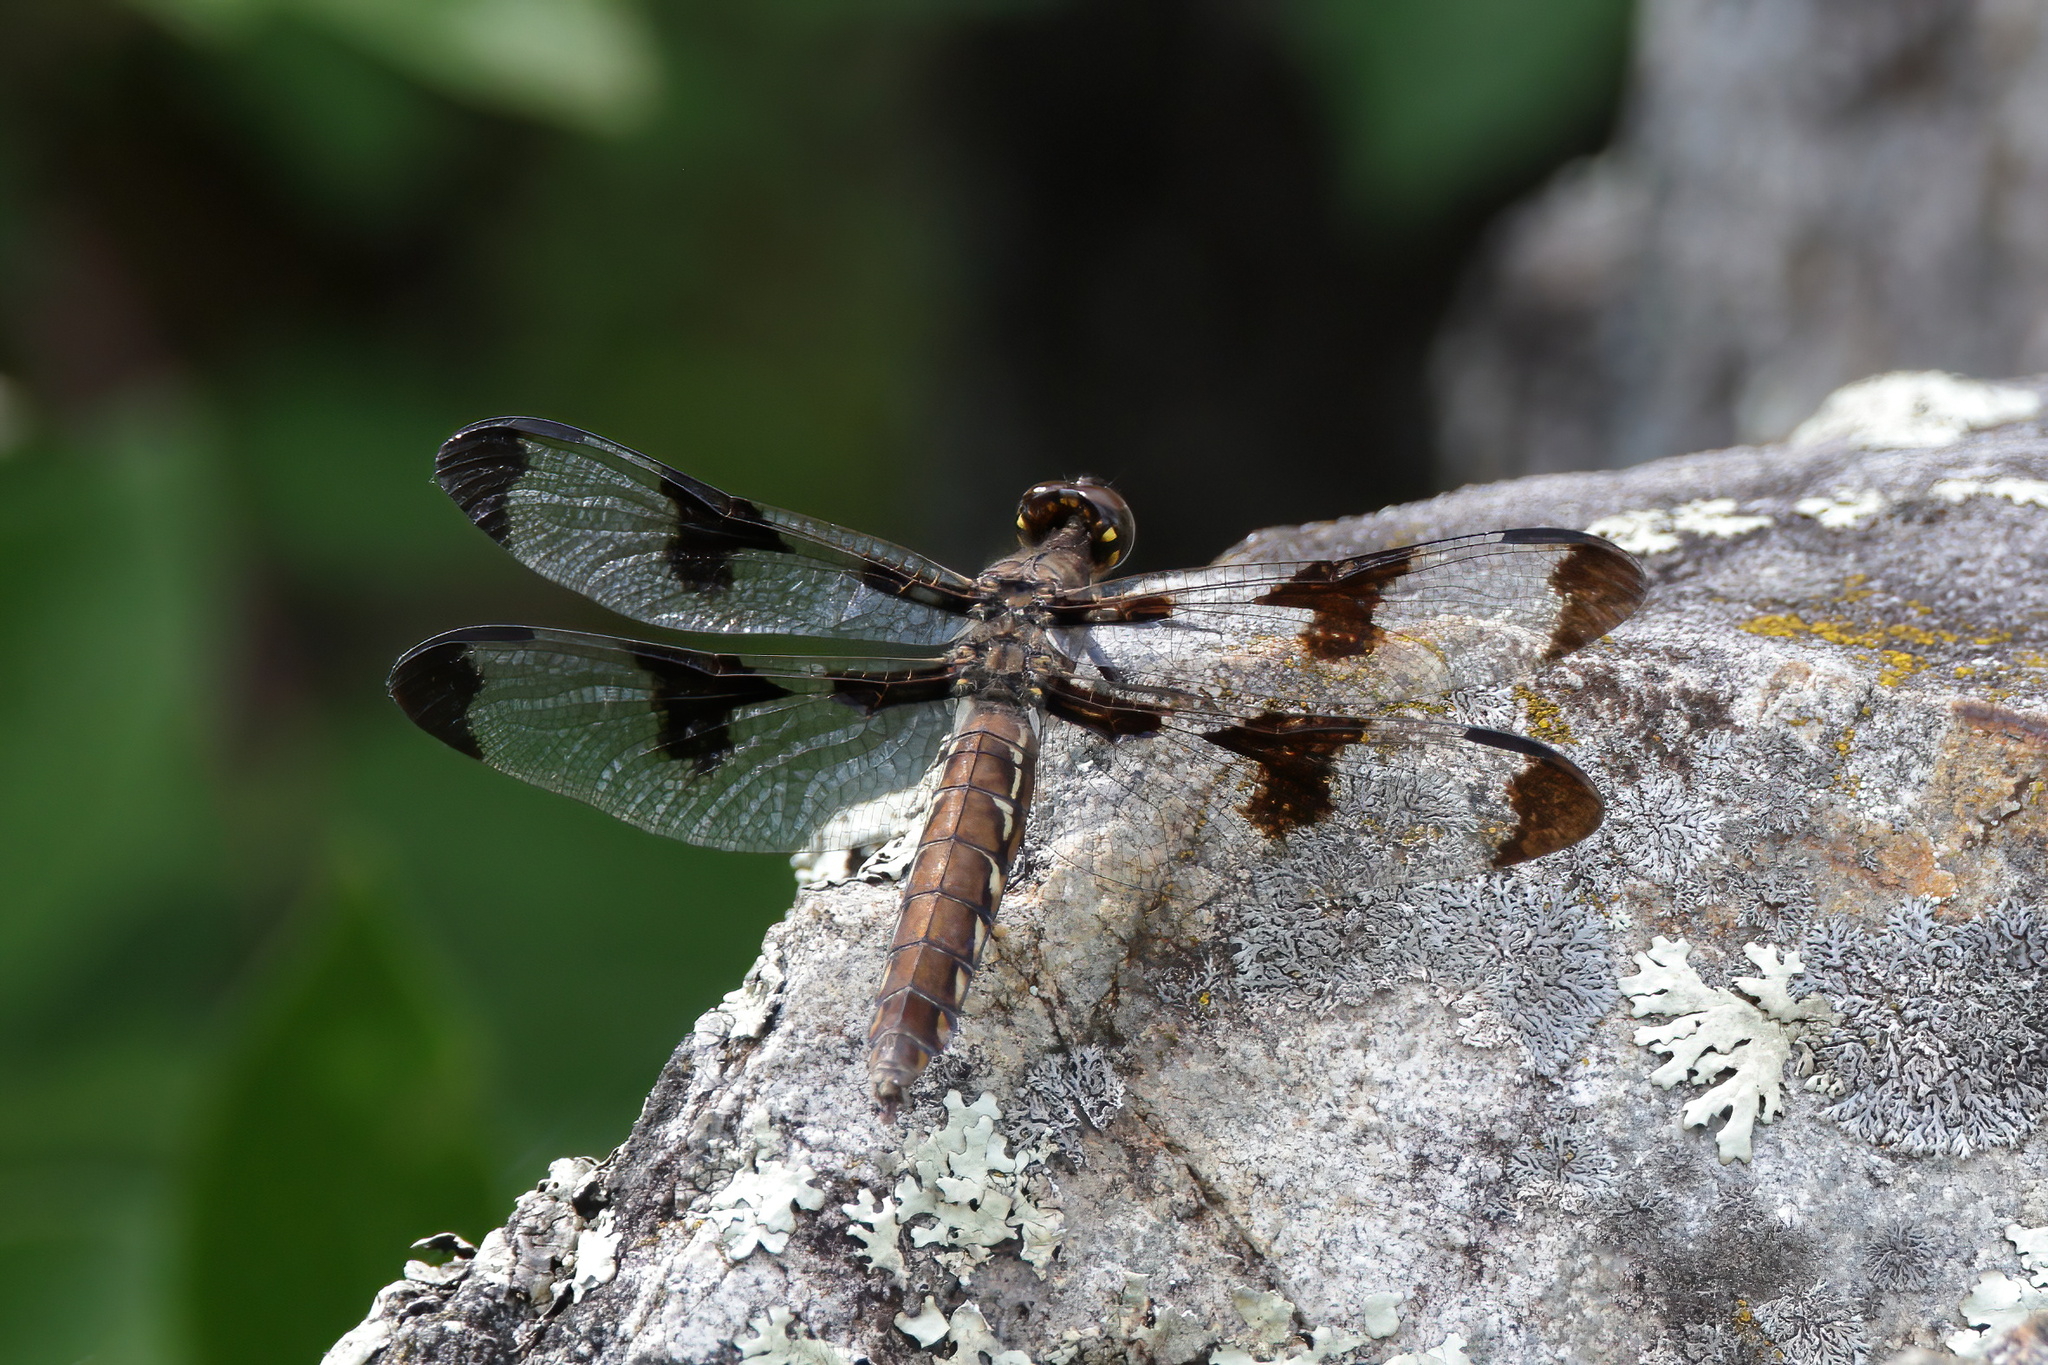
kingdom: Animalia
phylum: Arthropoda
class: Insecta
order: Odonata
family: Libellulidae
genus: Plathemis
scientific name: Plathemis lydia
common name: Common whitetail
